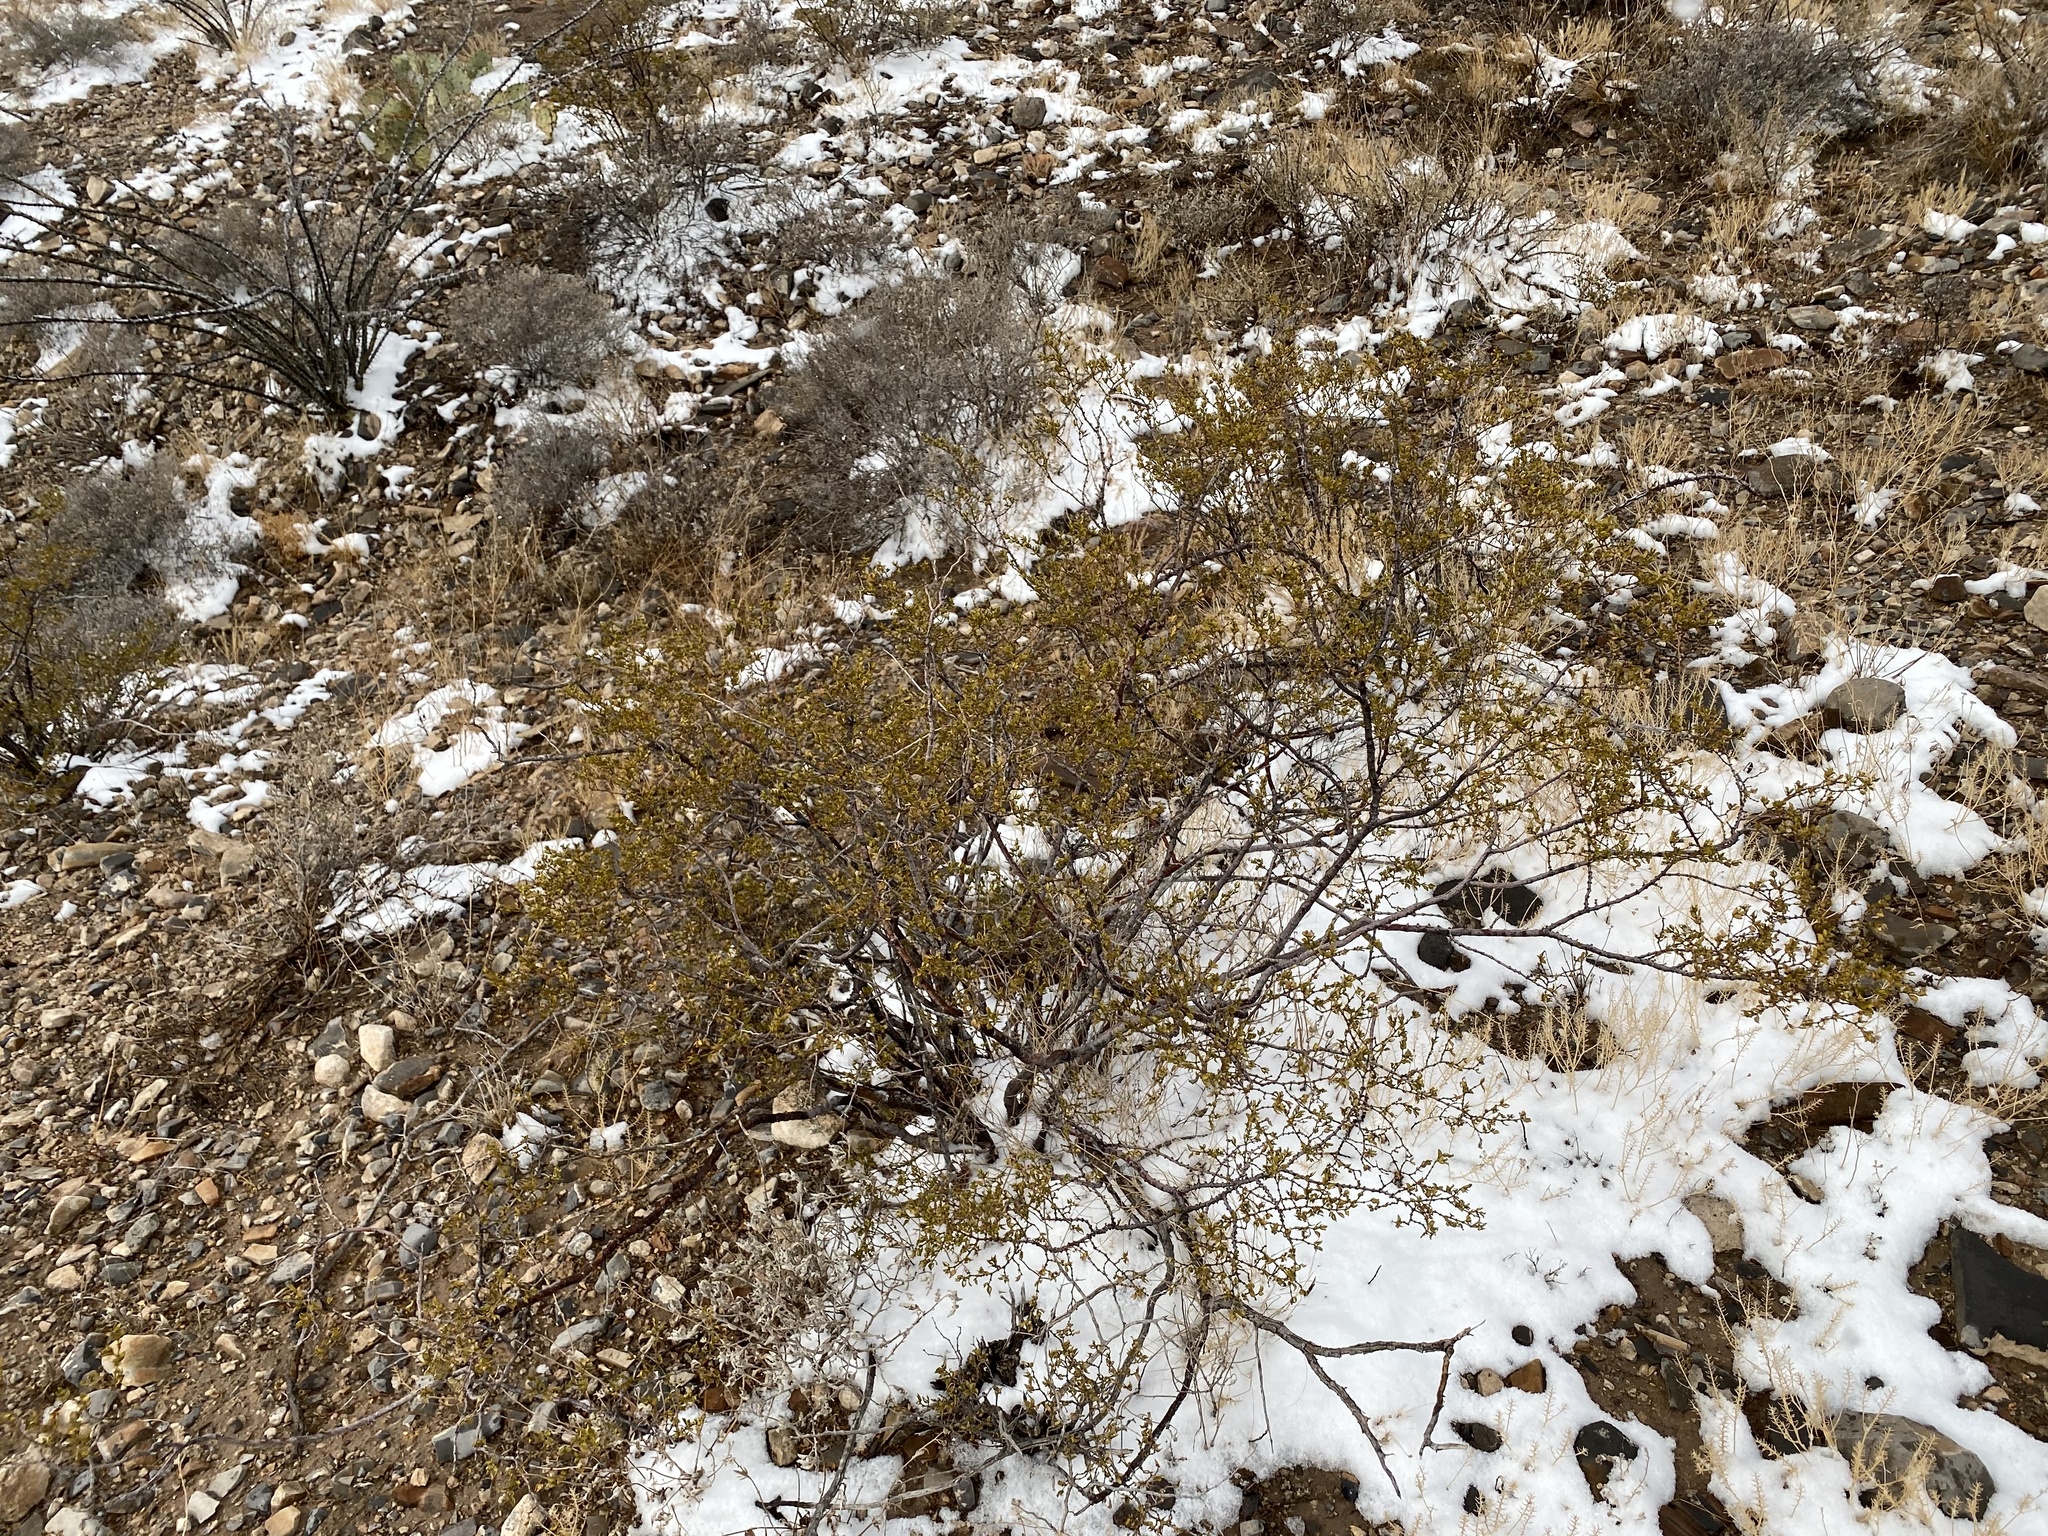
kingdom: Plantae
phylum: Tracheophyta
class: Magnoliopsida
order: Zygophyllales
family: Zygophyllaceae
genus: Larrea
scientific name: Larrea tridentata
